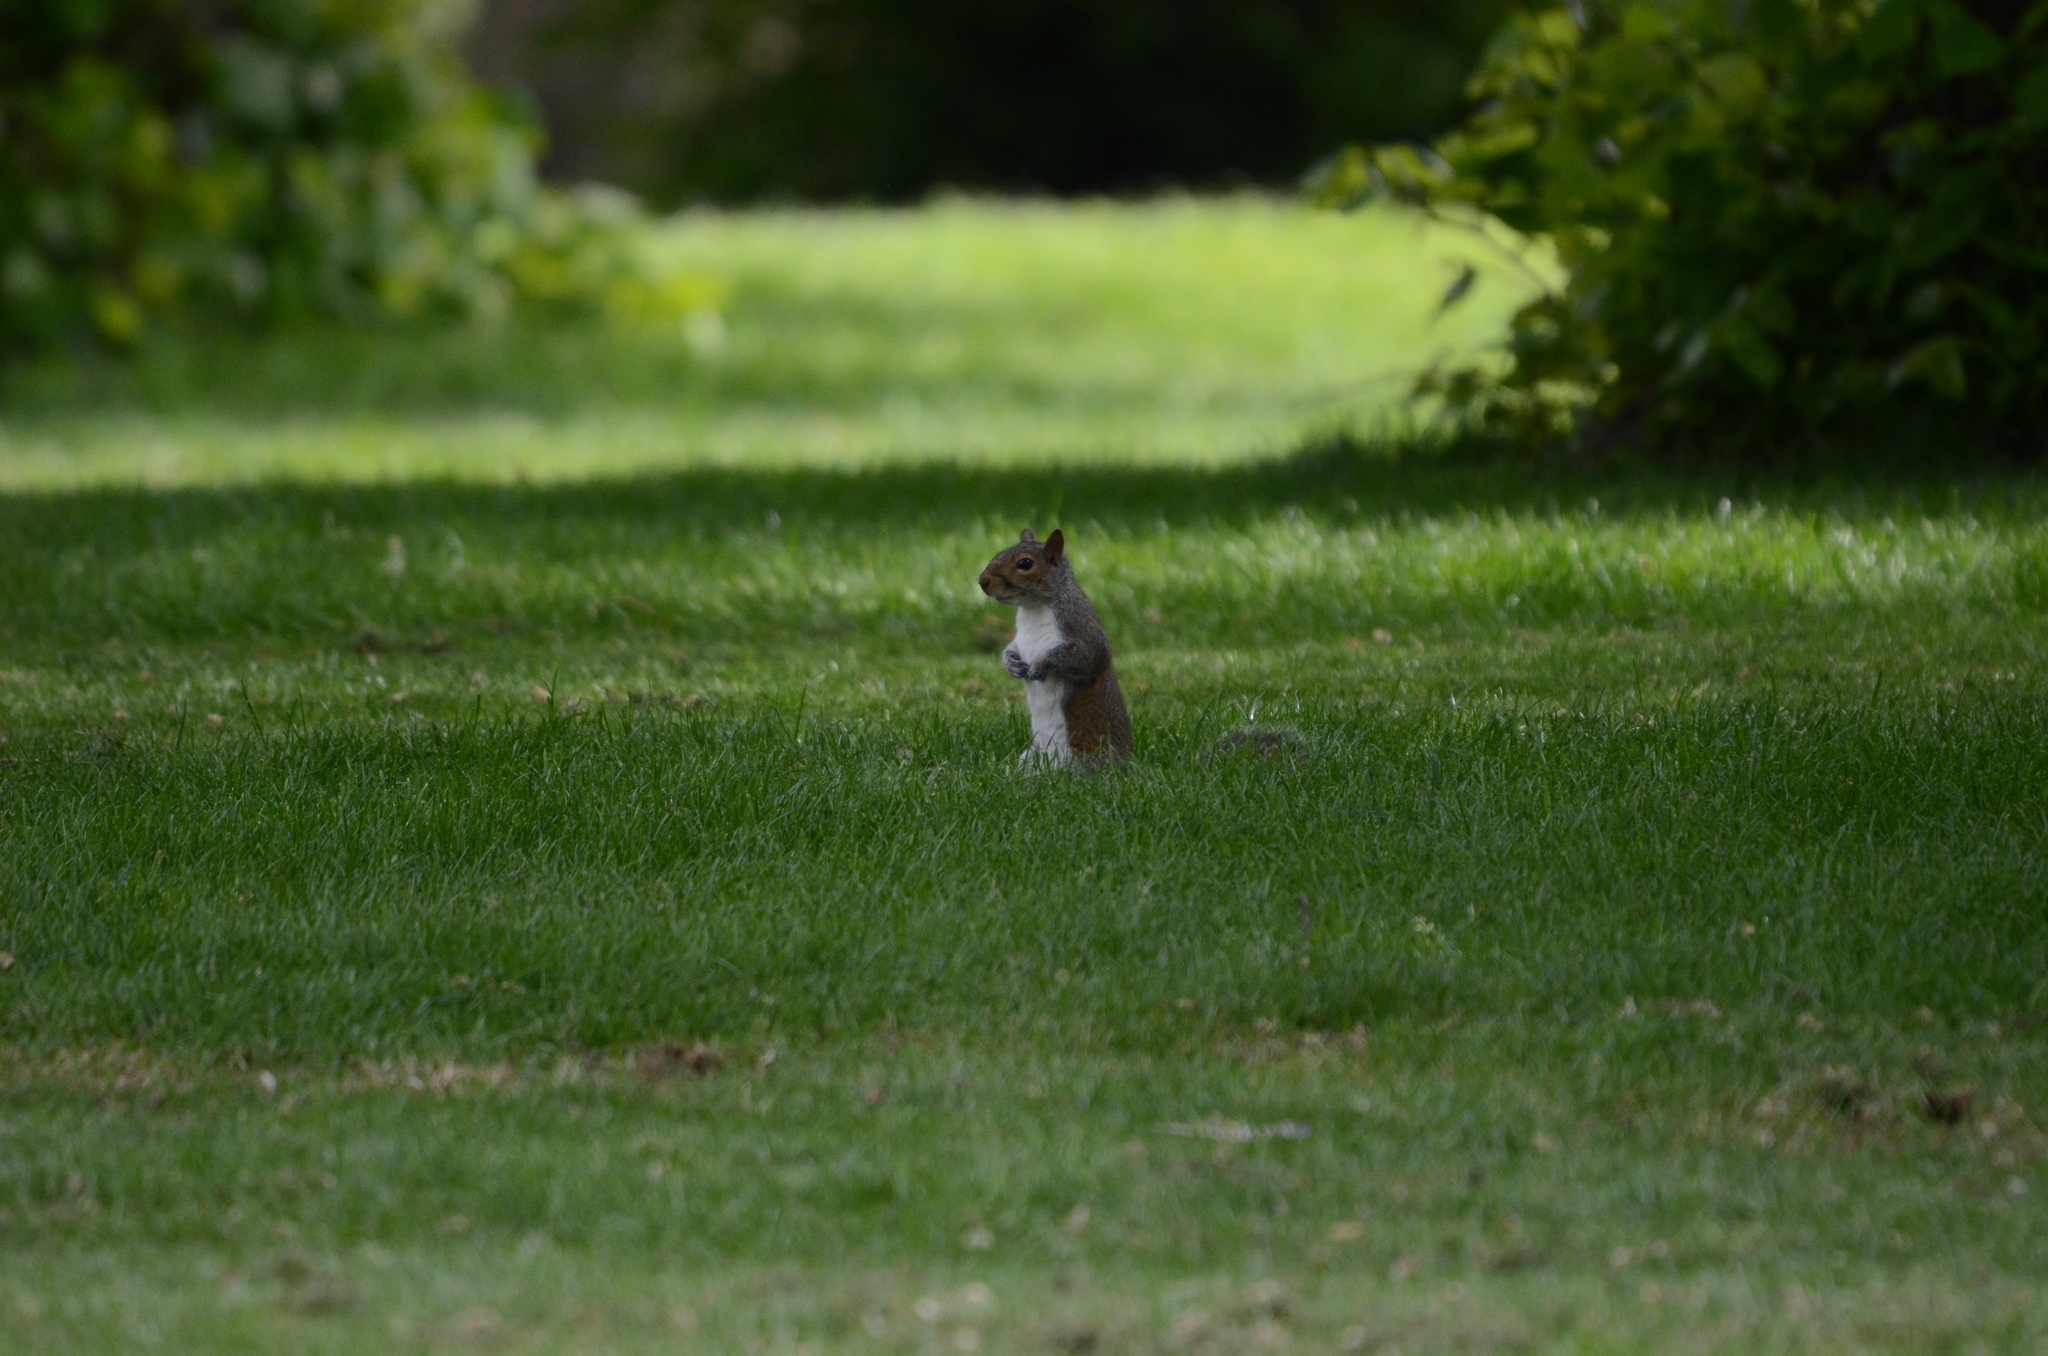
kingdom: Animalia
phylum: Chordata
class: Mammalia
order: Rodentia
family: Sciuridae
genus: Sciurus
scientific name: Sciurus carolinensis
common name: Eastern gray squirrel
